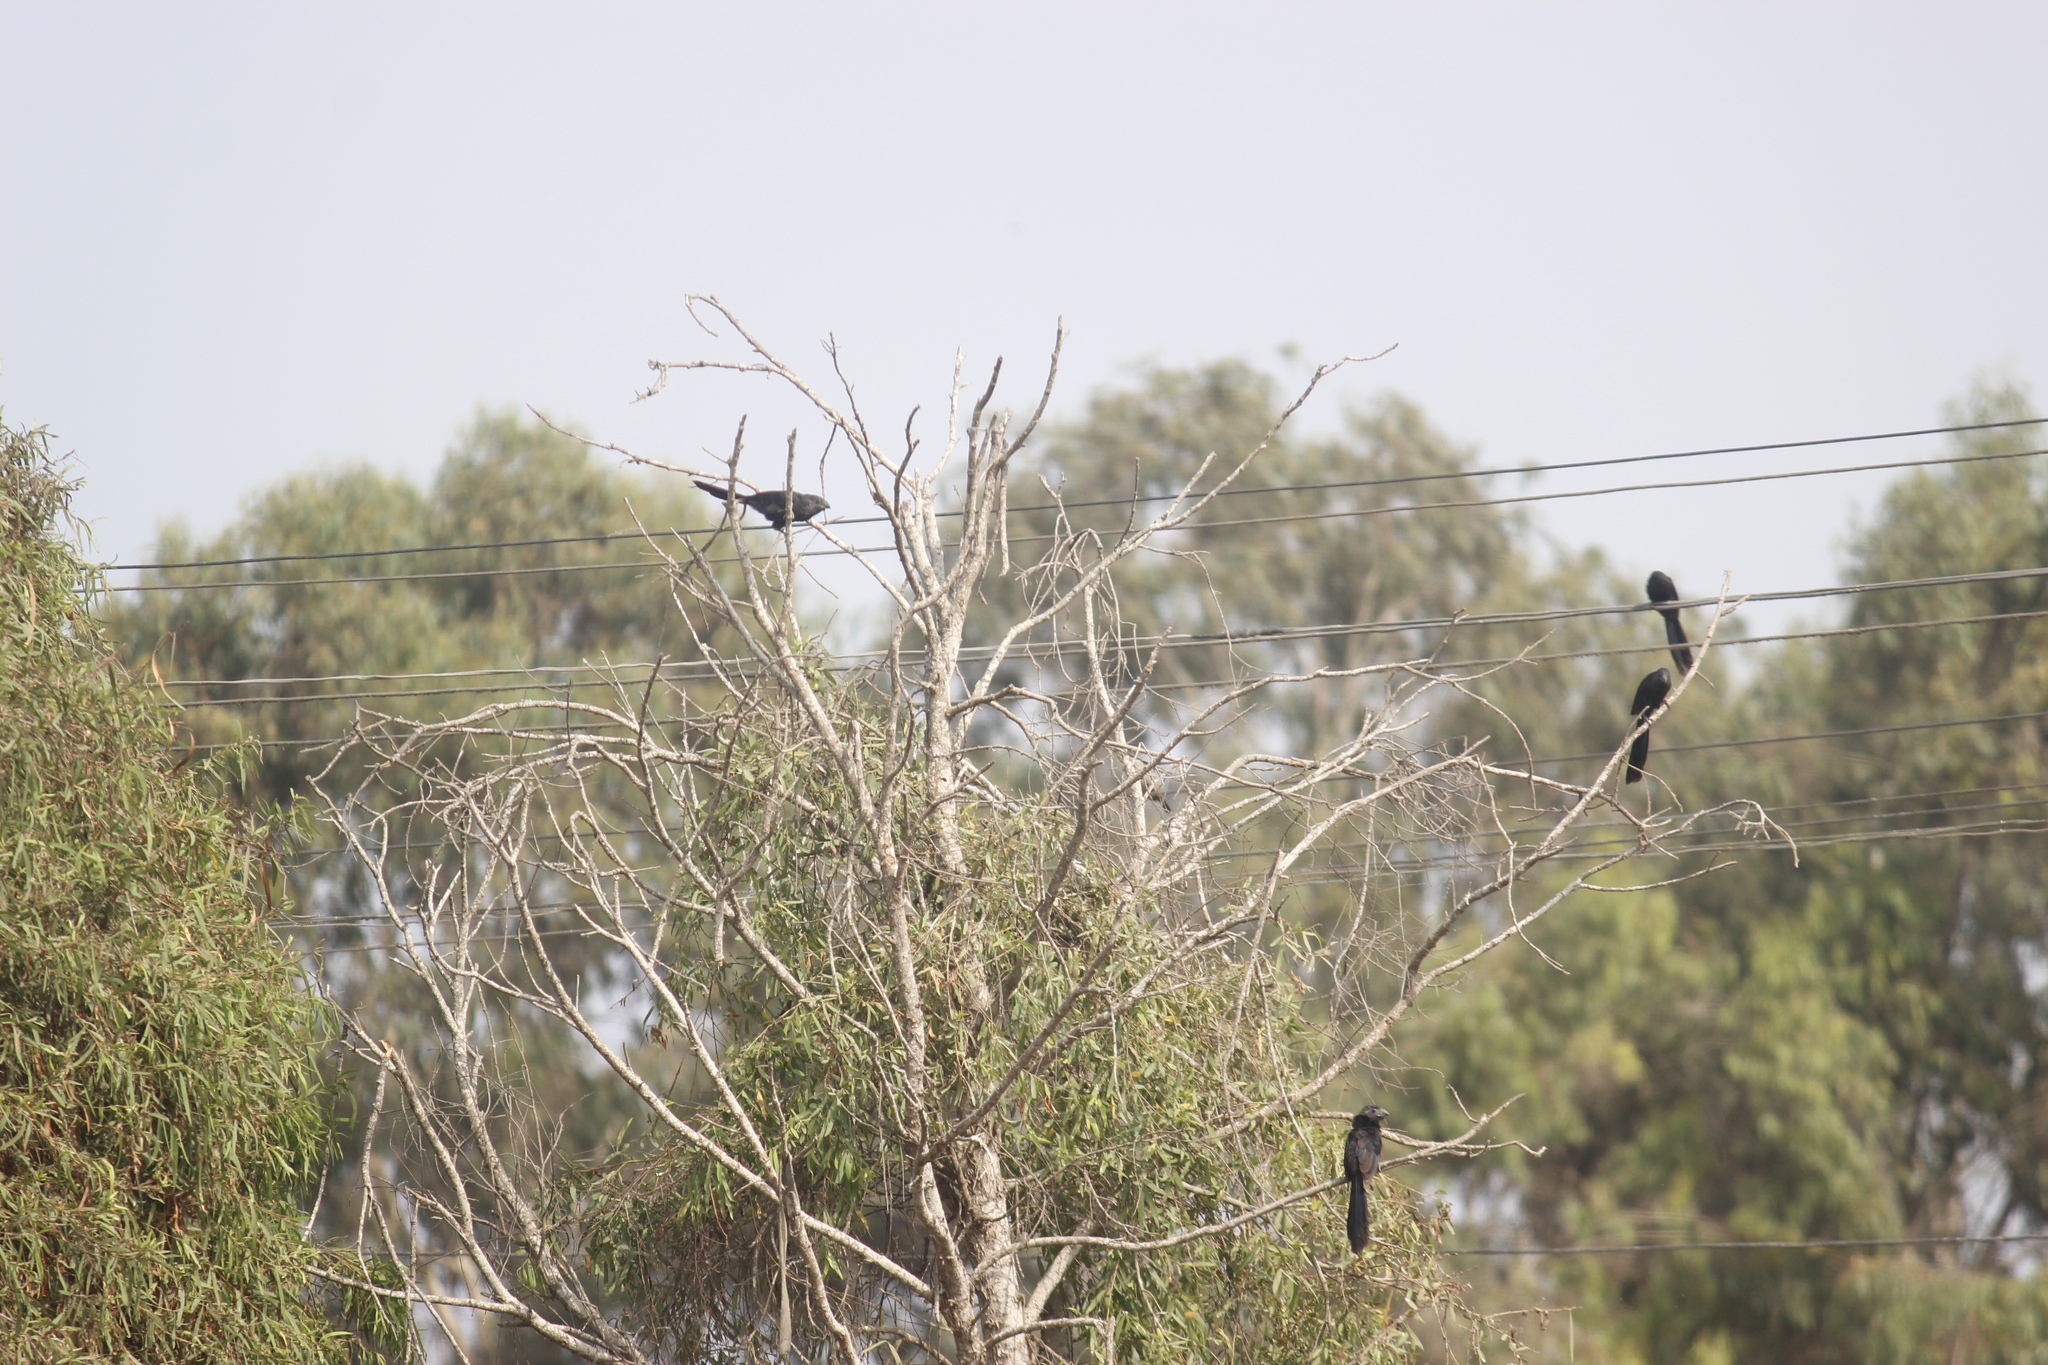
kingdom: Animalia
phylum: Chordata
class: Aves
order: Cuculiformes
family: Cuculidae
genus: Crotophaga
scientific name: Crotophaga sulcirostris
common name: Groove-billed ani
